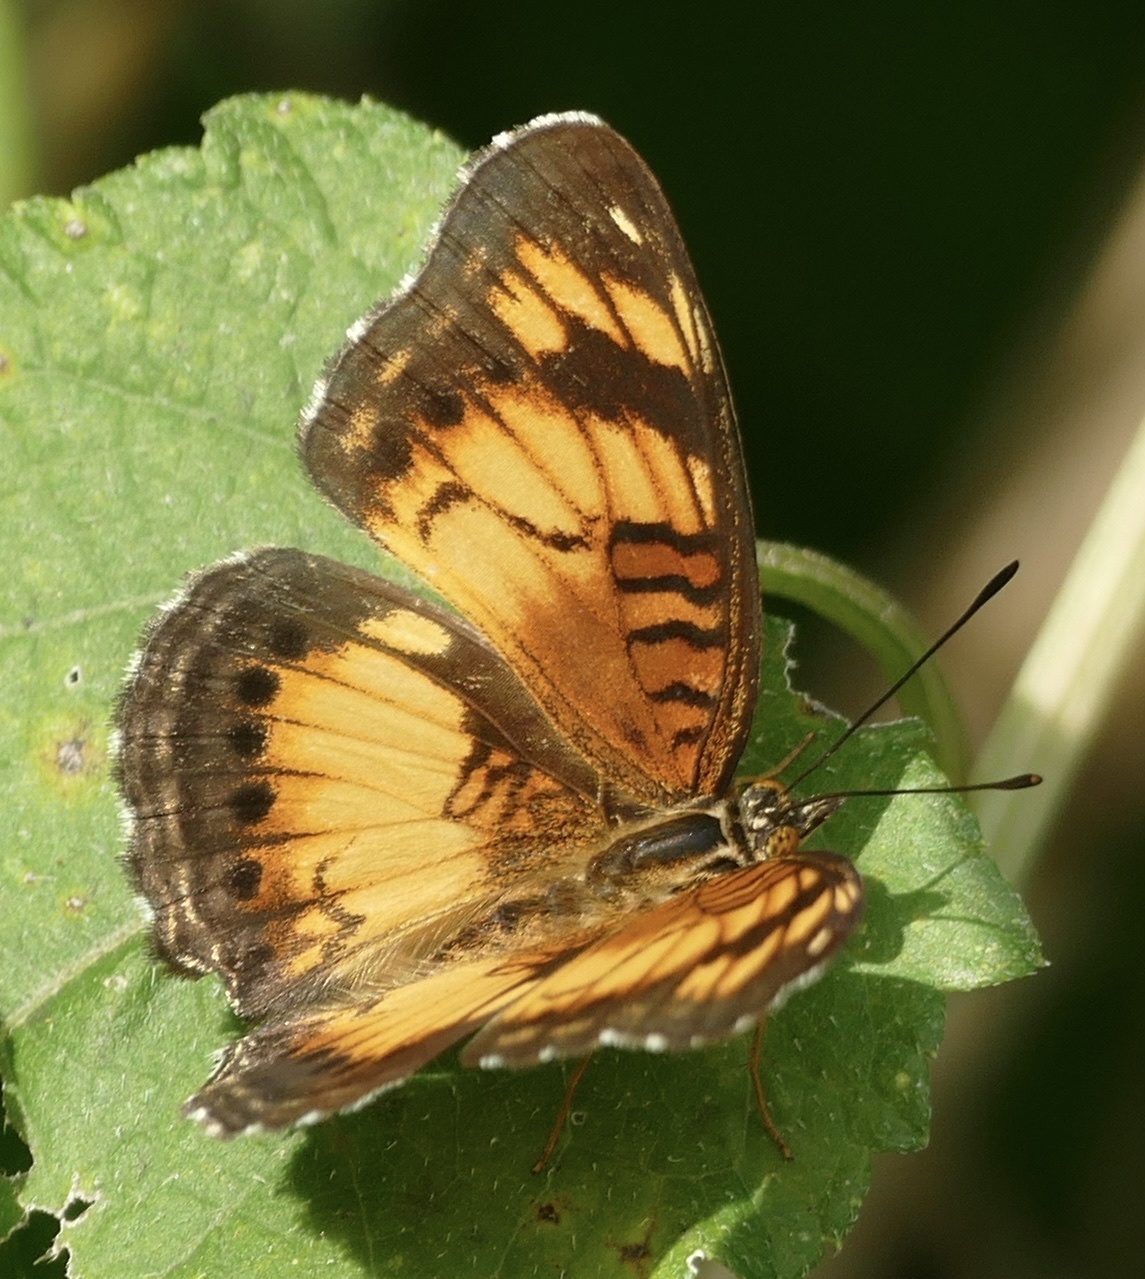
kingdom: Animalia
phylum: Arthropoda
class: Insecta
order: Lepidoptera
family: Nymphalidae
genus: Junonia
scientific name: Junonia sophia
